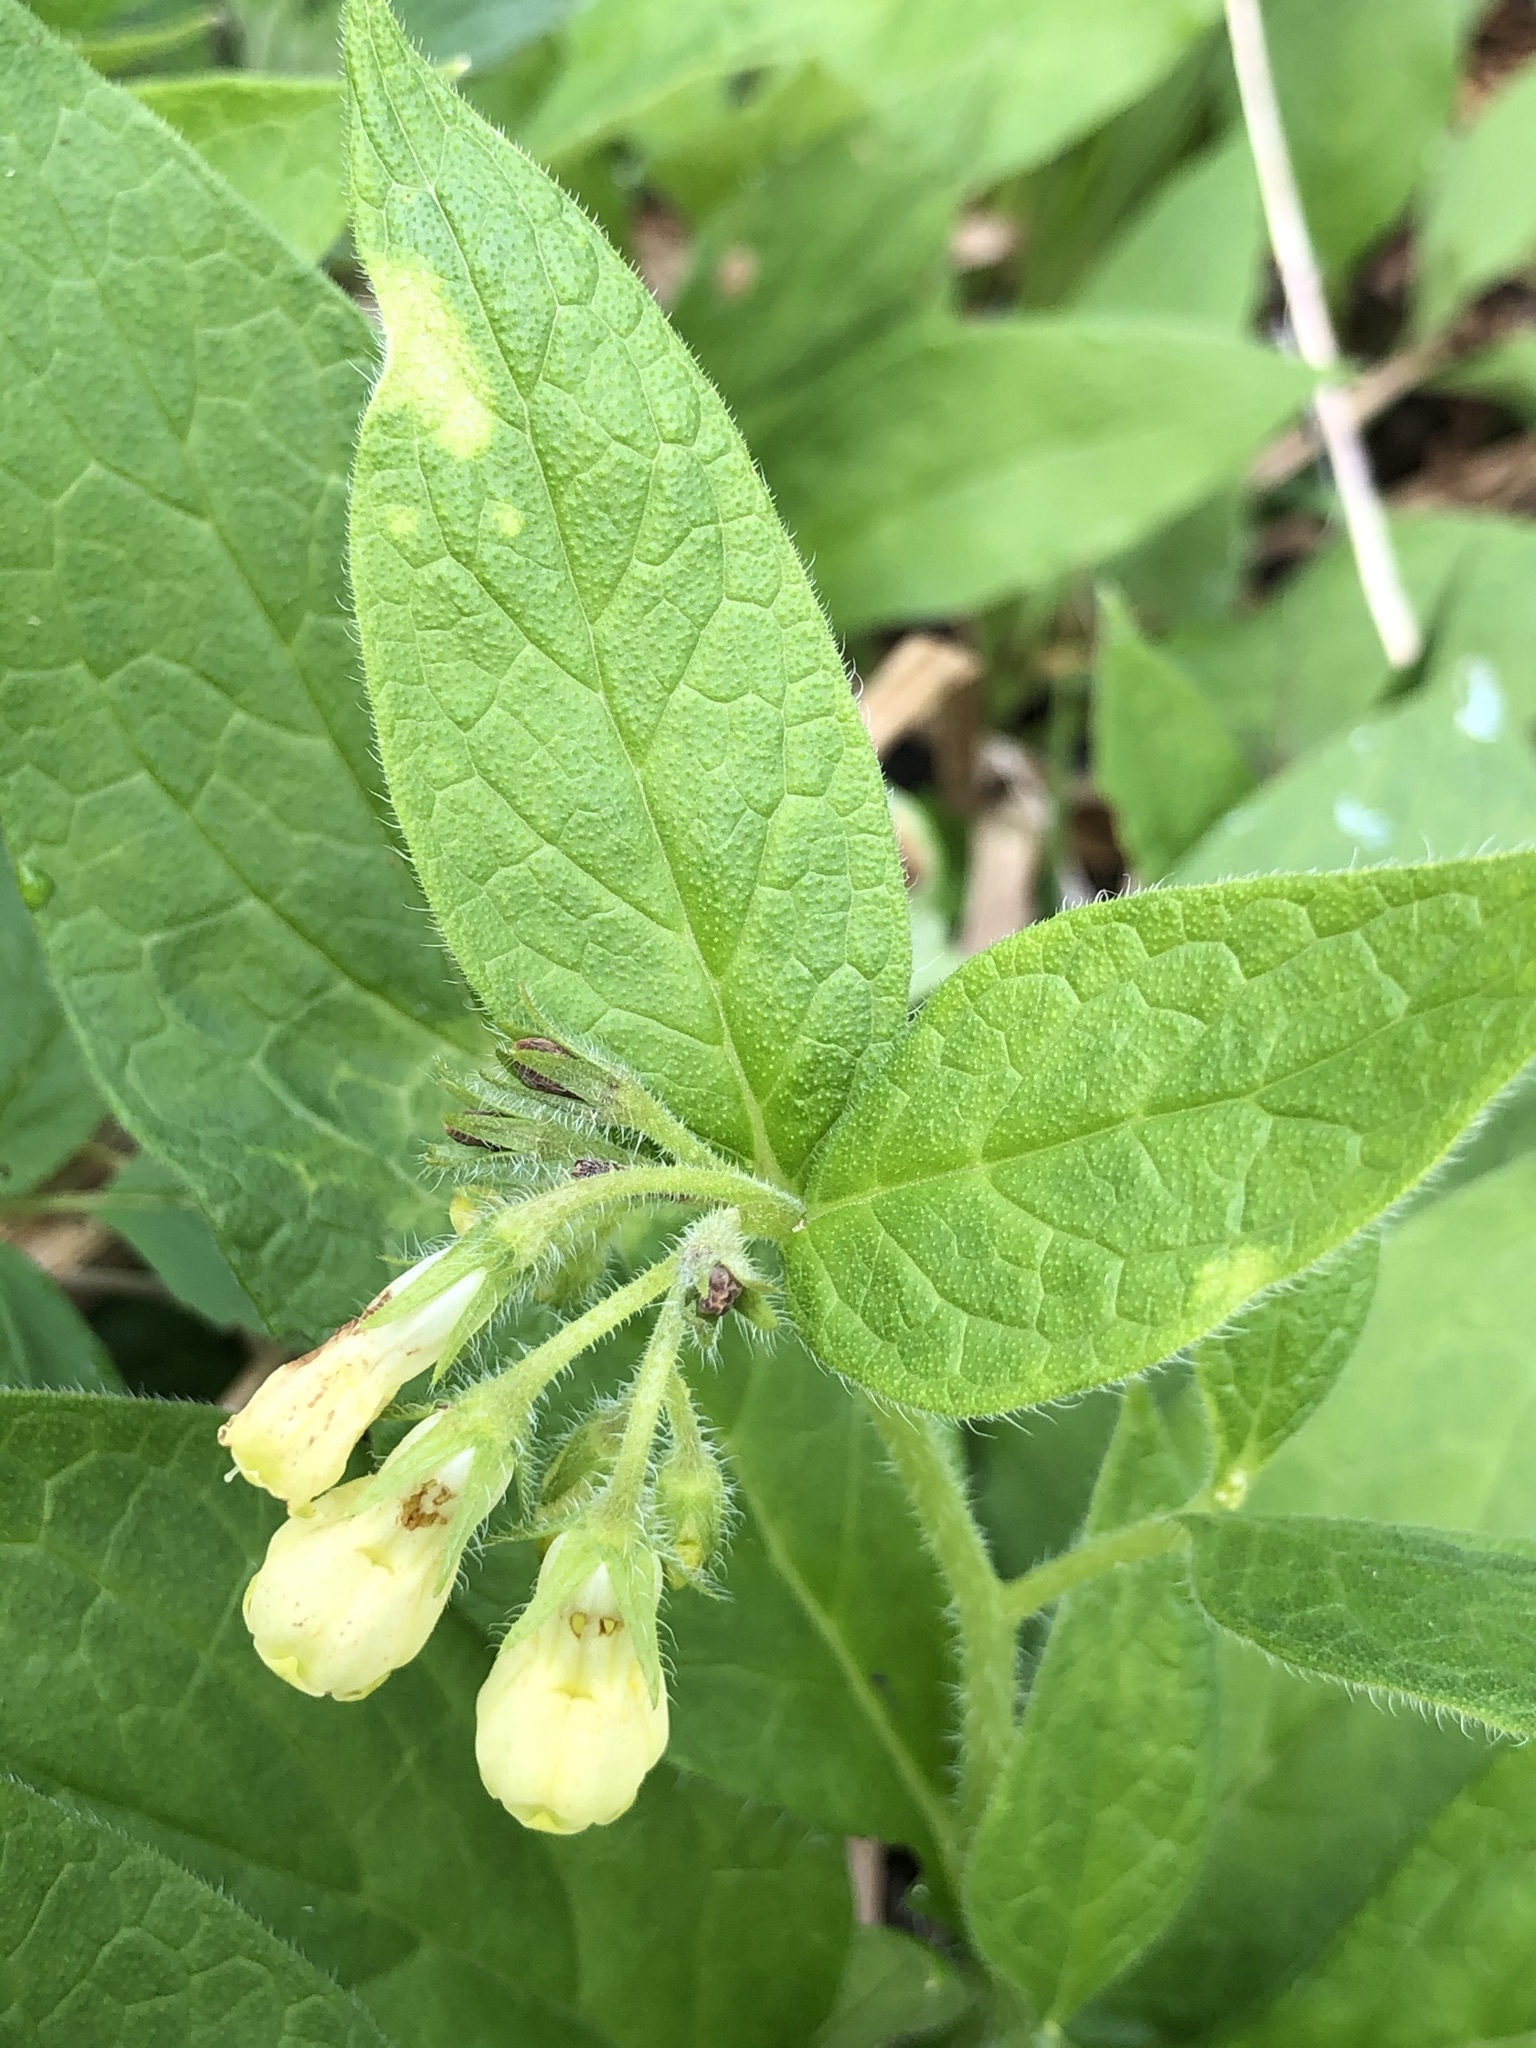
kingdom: Plantae
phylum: Tracheophyta
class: Magnoliopsida
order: Boraginales
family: Boraginaceae
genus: Symphytum
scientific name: Symphytum tuberosum
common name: Tuberous comfrey
